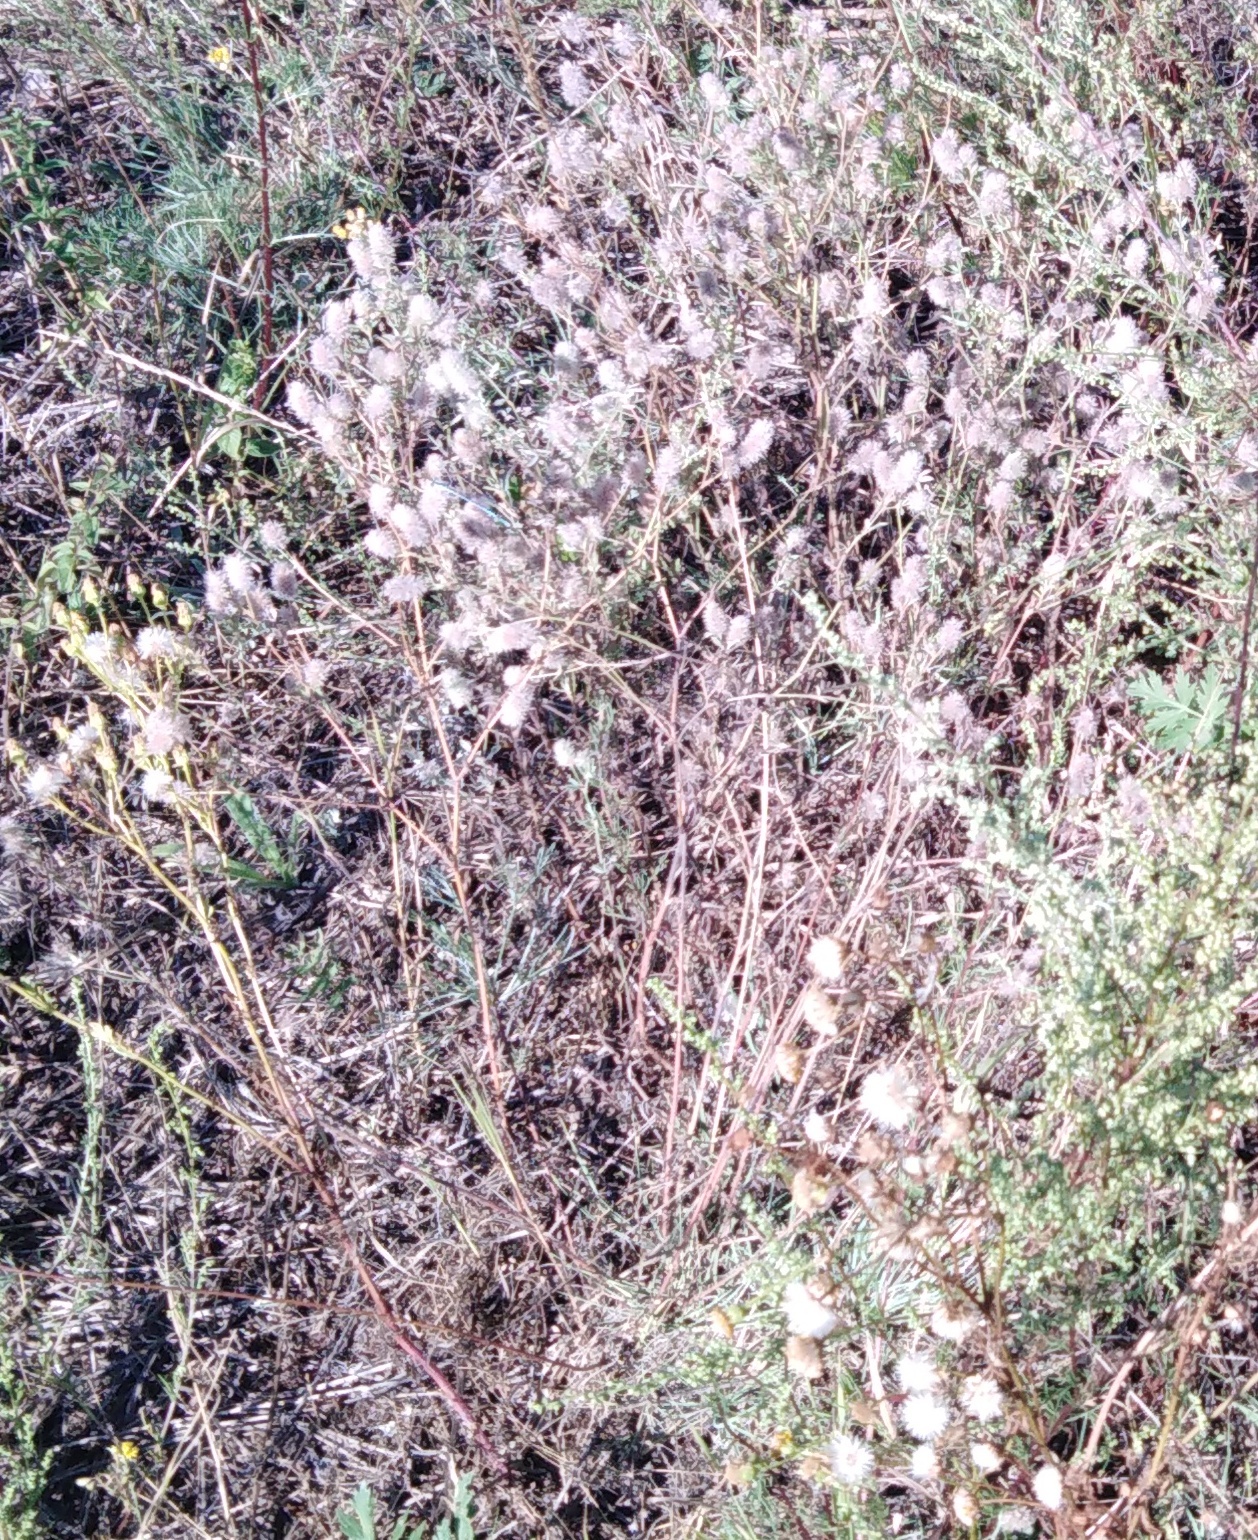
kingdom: Plantae
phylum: Tracheophyta
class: Magnoliopsida
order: Fabales
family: Fabaceae
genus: Trifolium
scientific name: Trifolium arvense
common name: Hare's-foot clover
